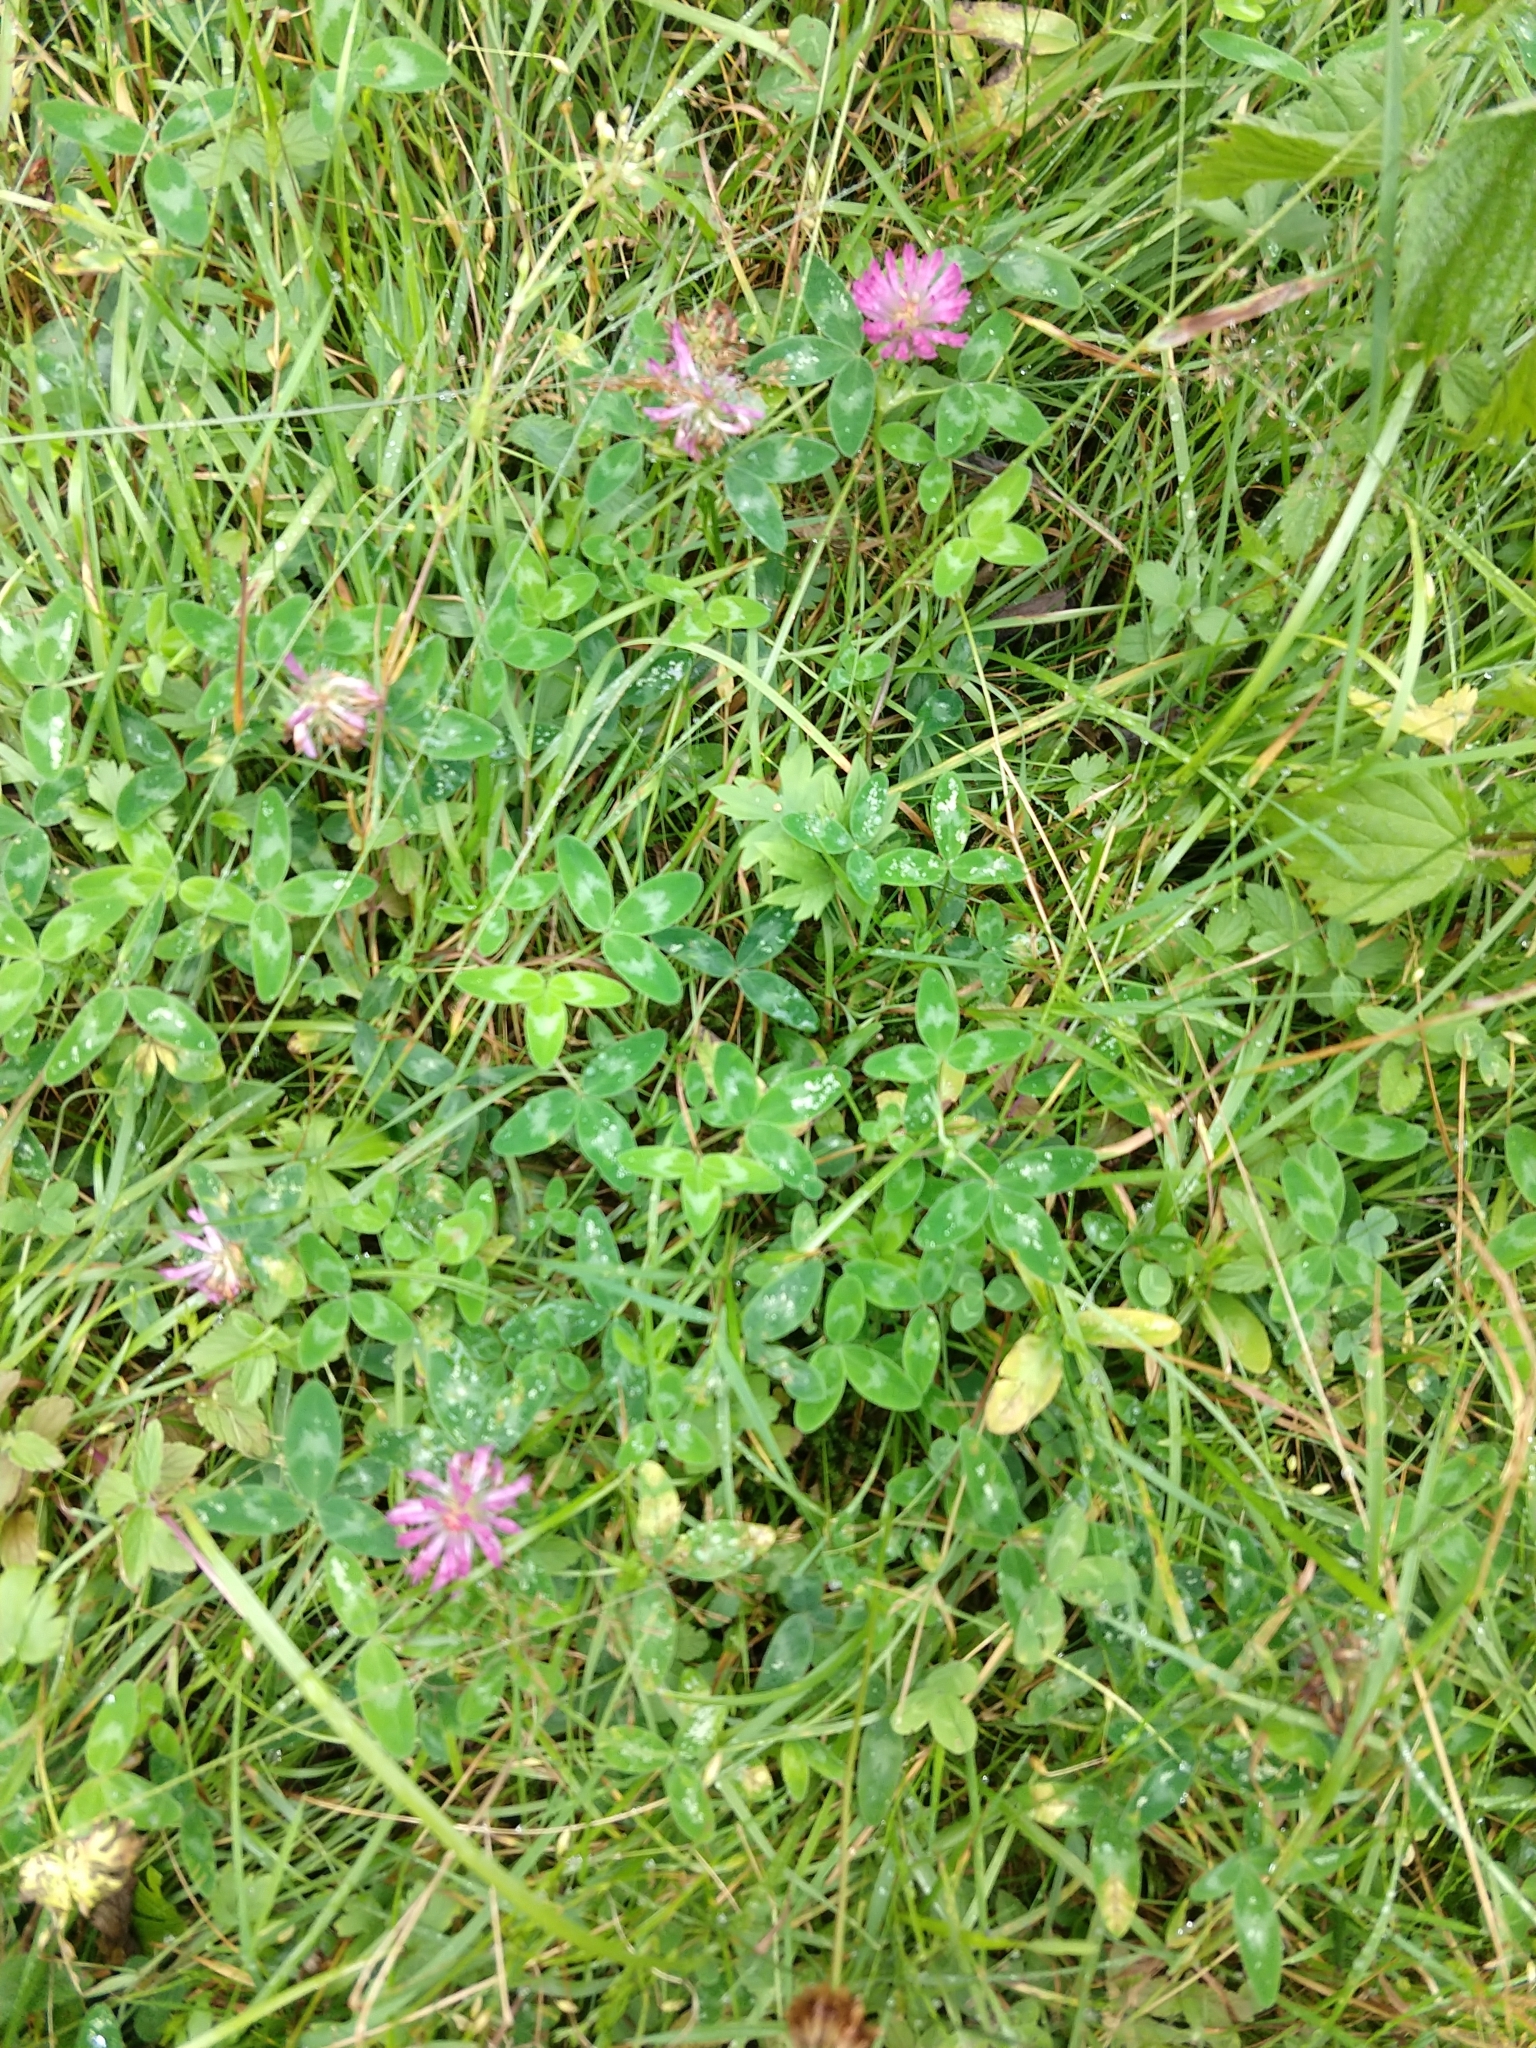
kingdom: Plantae
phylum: Tracheophyta
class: Magnoliopsida
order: Fabales
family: Fabaceae
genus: Trifolium
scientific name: Trifolium pratense
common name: Red clover
